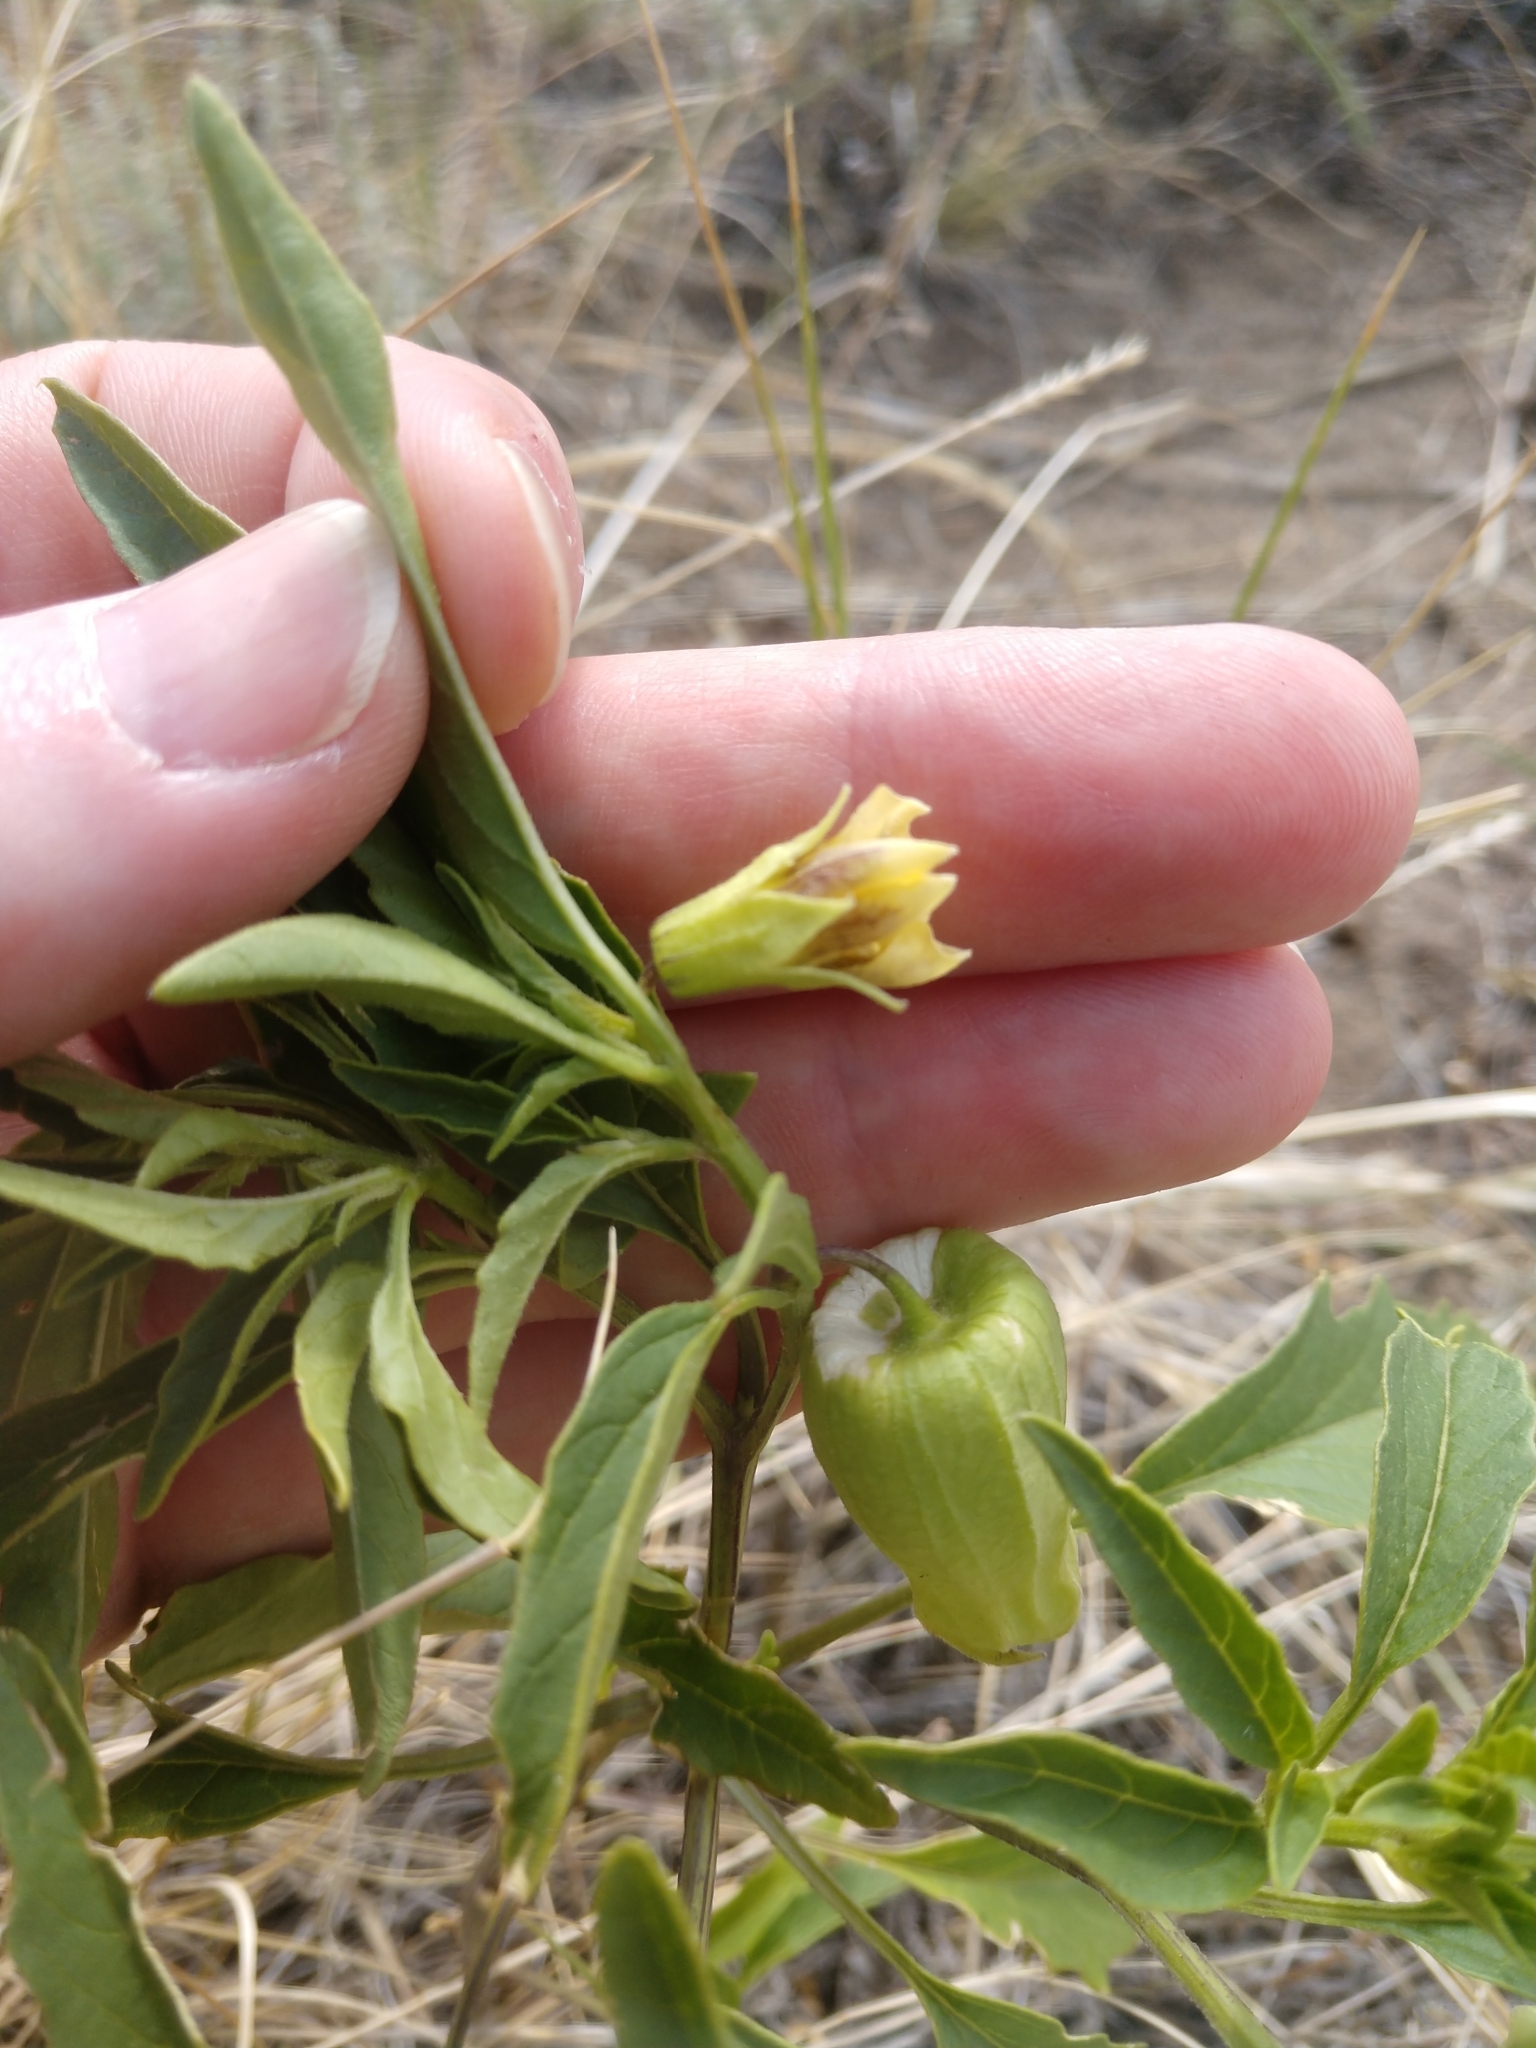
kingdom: Plantae
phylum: Tracheophyta
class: Magnoliopsida
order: Solanales
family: Solanaceae
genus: Physalis
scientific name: Physalis longifolia
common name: Common ground-cherry
